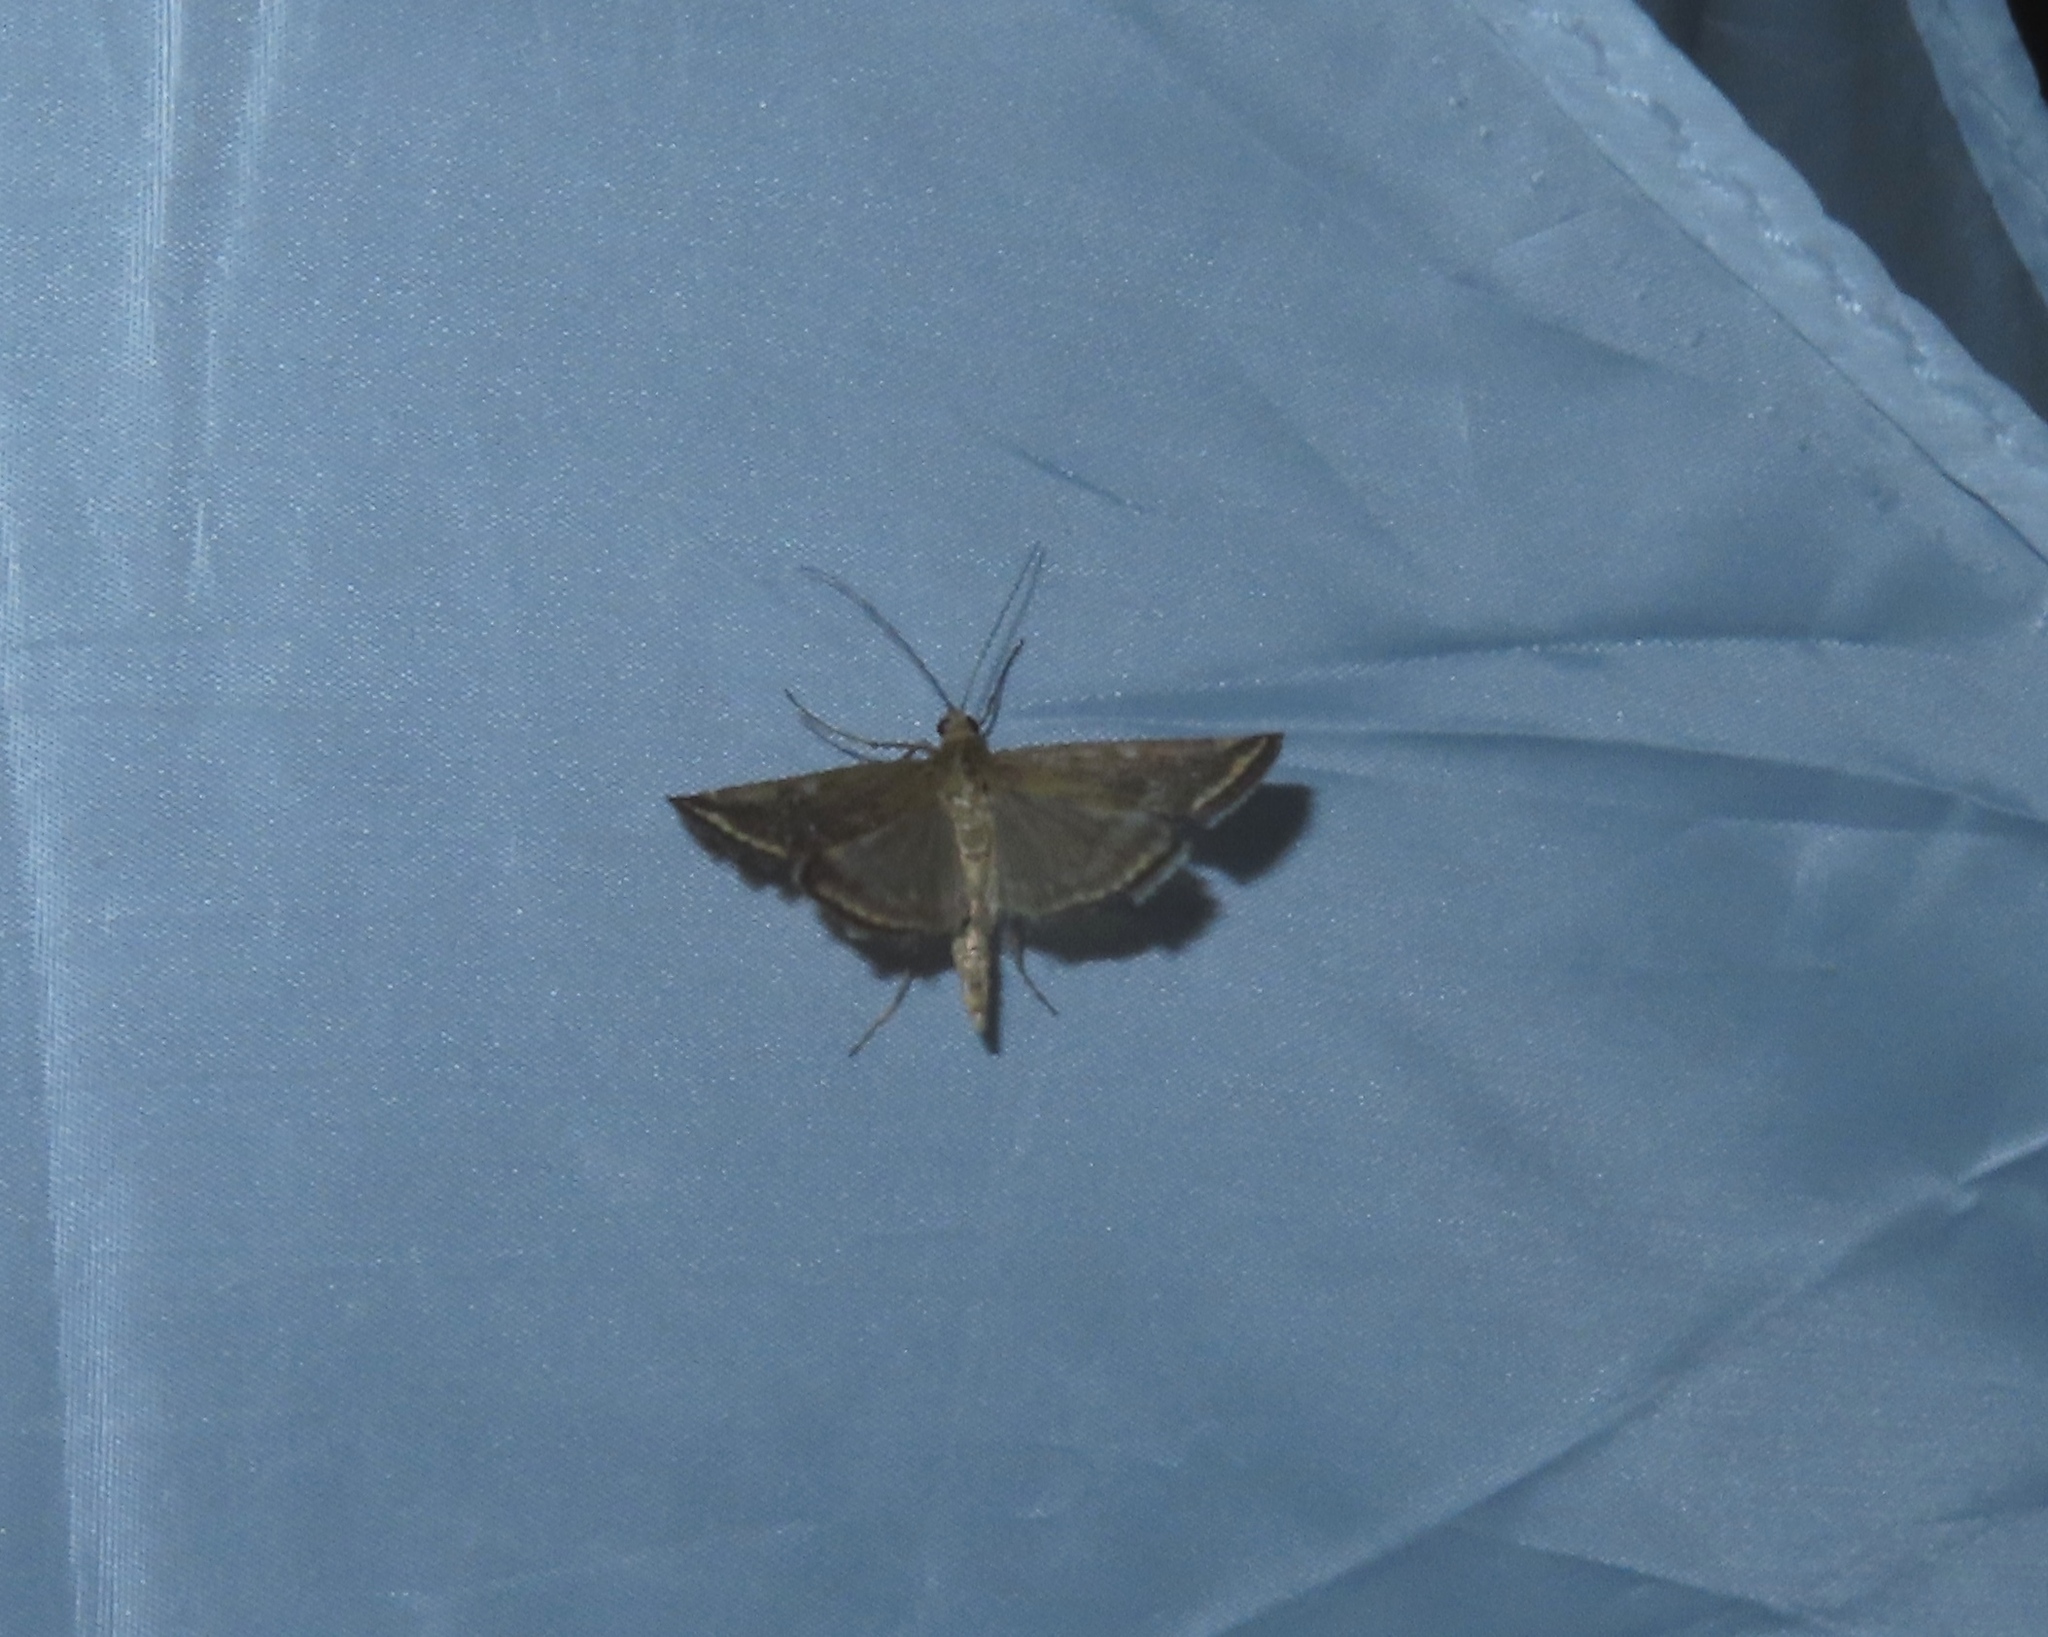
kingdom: Animalia
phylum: Arthropoda
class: Insecta
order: Lepidoptera
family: Crambidae
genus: Loxostege
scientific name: Loxostege sticticalis
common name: Crambid moth
